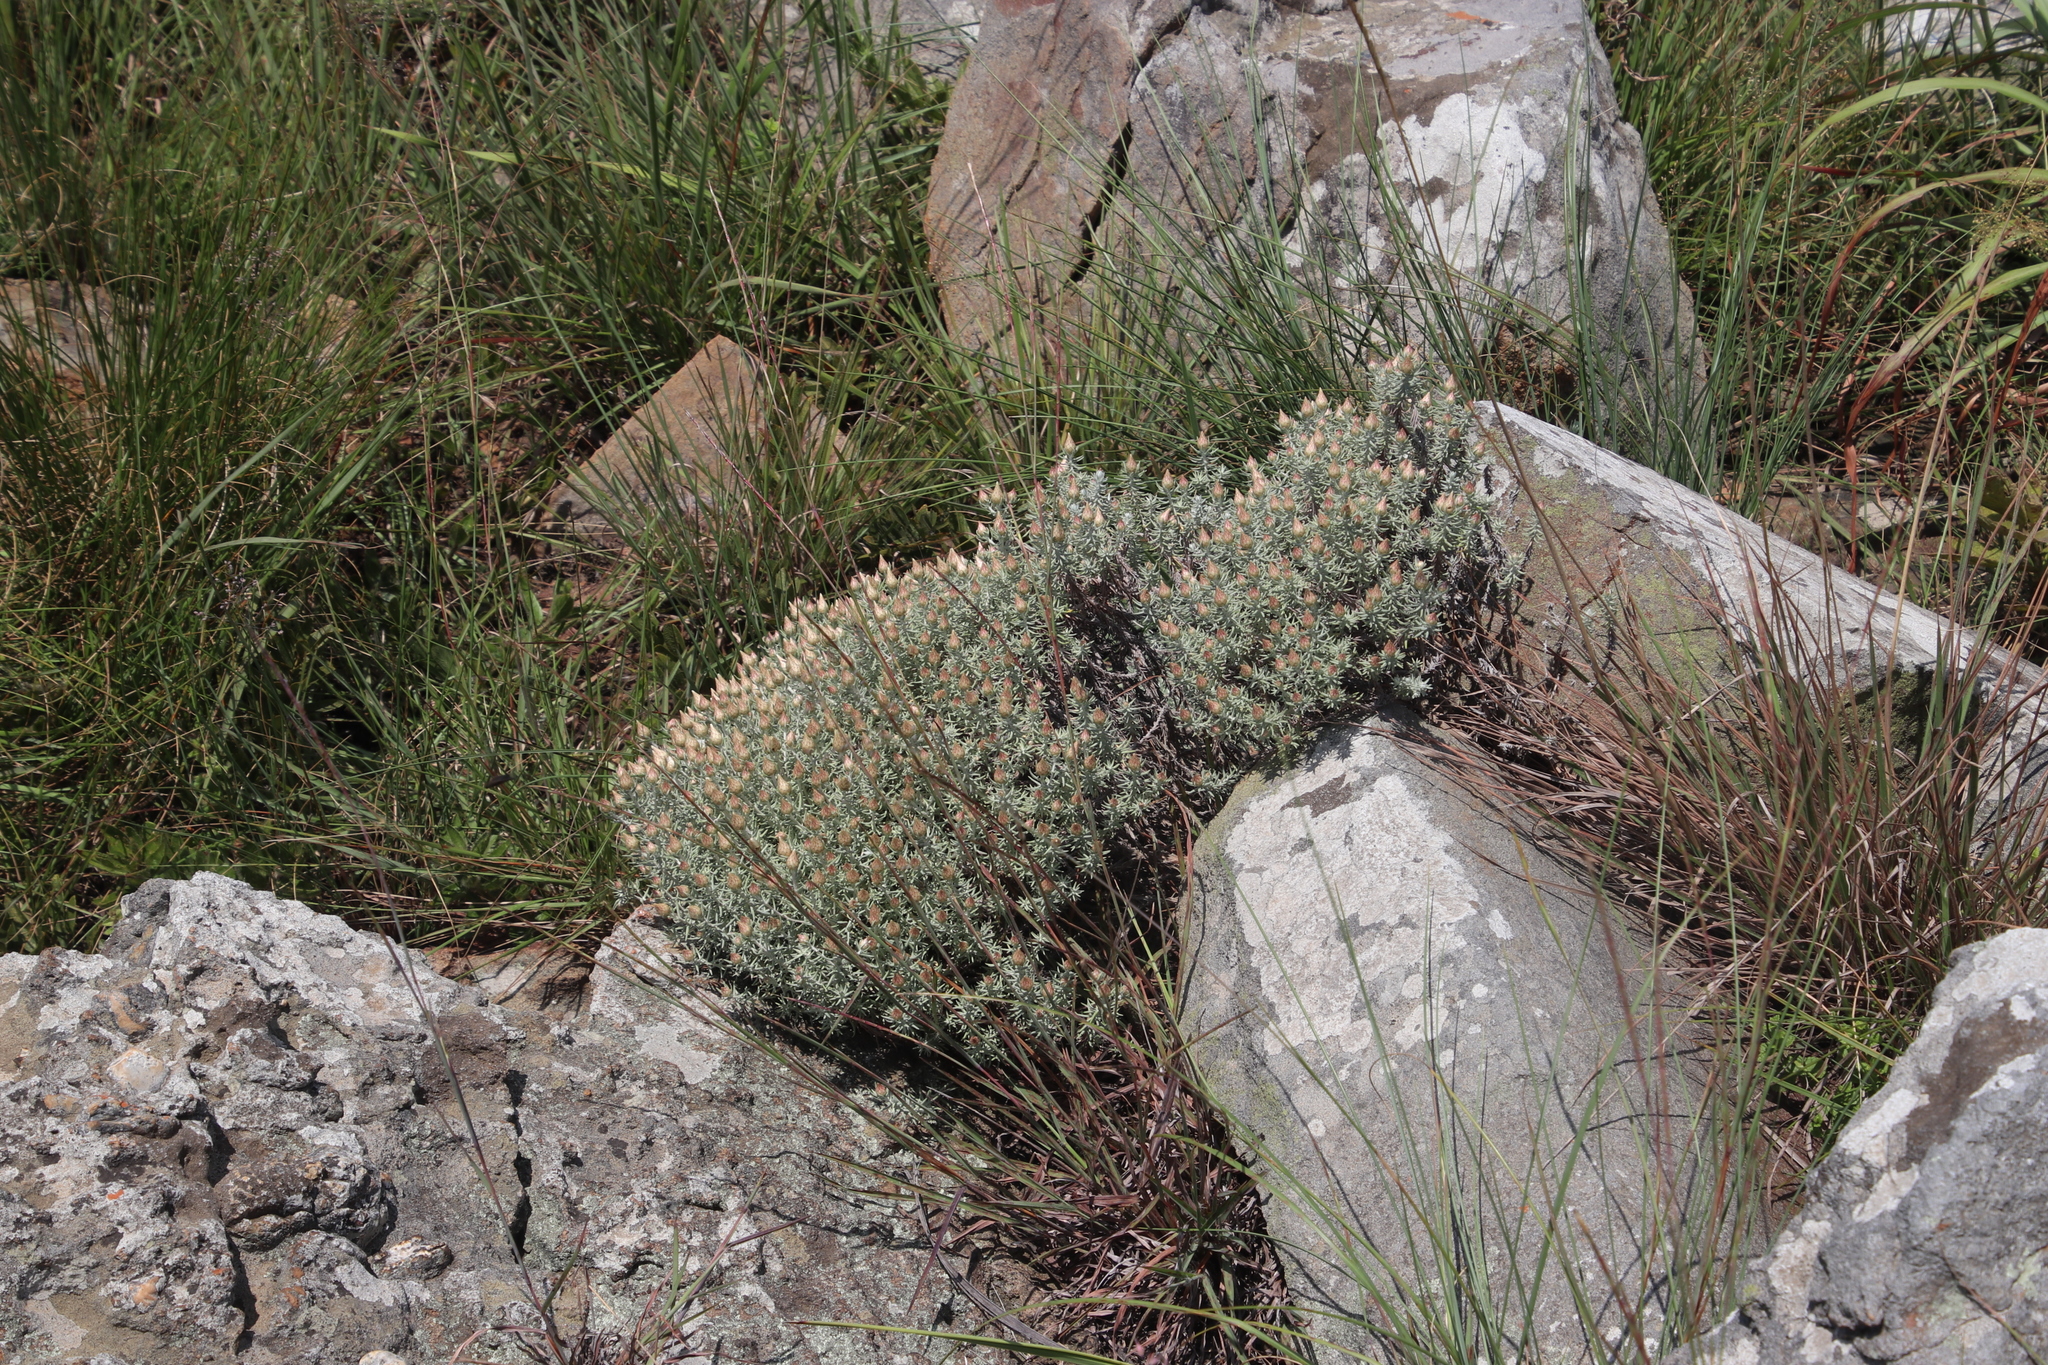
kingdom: Plantae
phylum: Tracheophyta
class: Magnoliopsida
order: Asterales
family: Asteraceae
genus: Helichrysum
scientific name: Helichrysum reflexum
